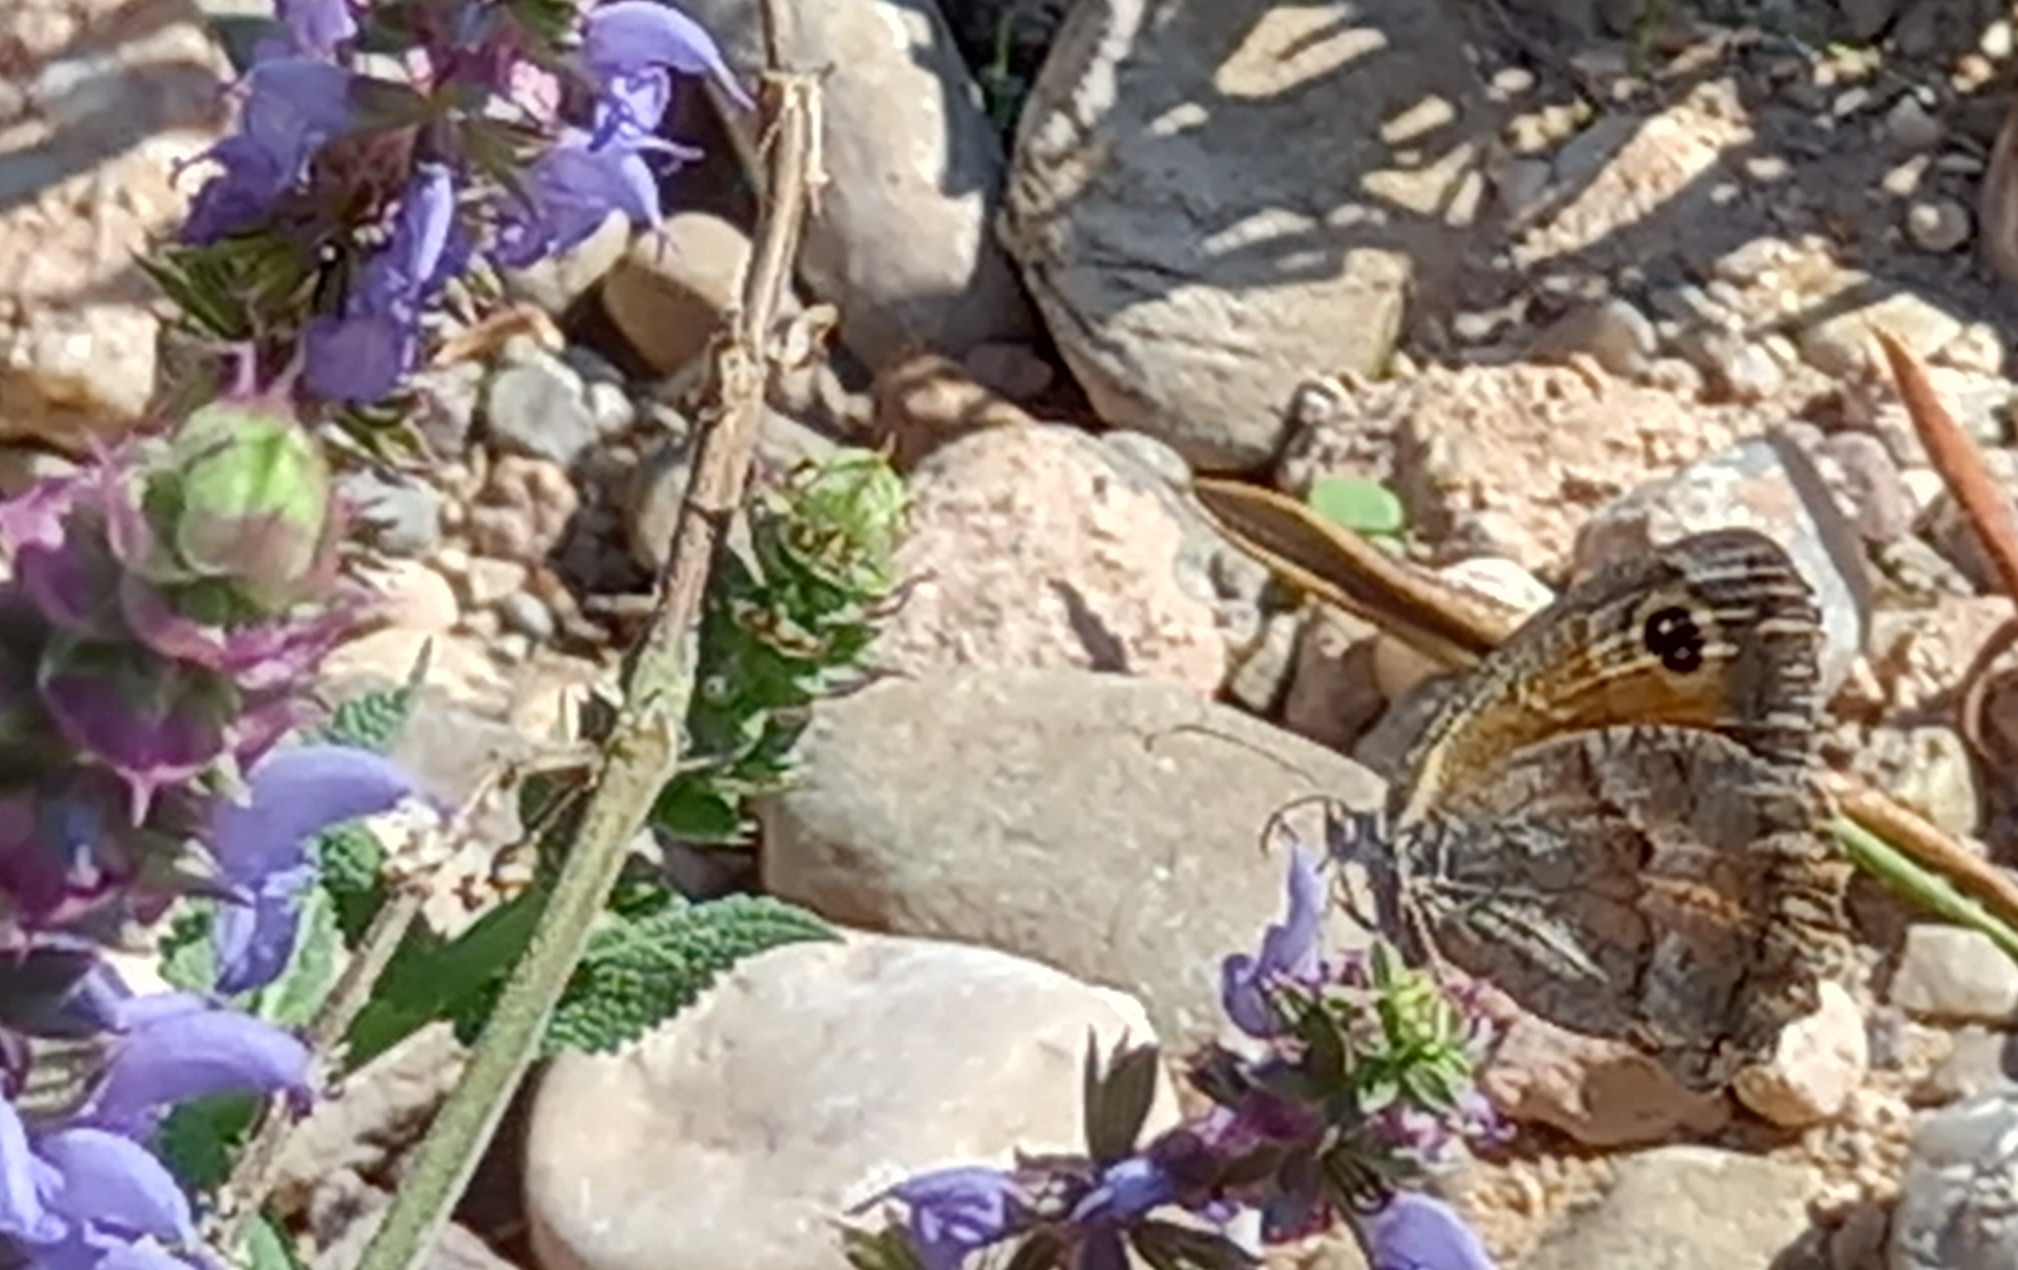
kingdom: Animalia
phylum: Arthropoda
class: Insecta
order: Lepidoptera
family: Nymphalidae
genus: Pyronia
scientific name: Pyronia cecilia
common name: Southern gatekeeper
